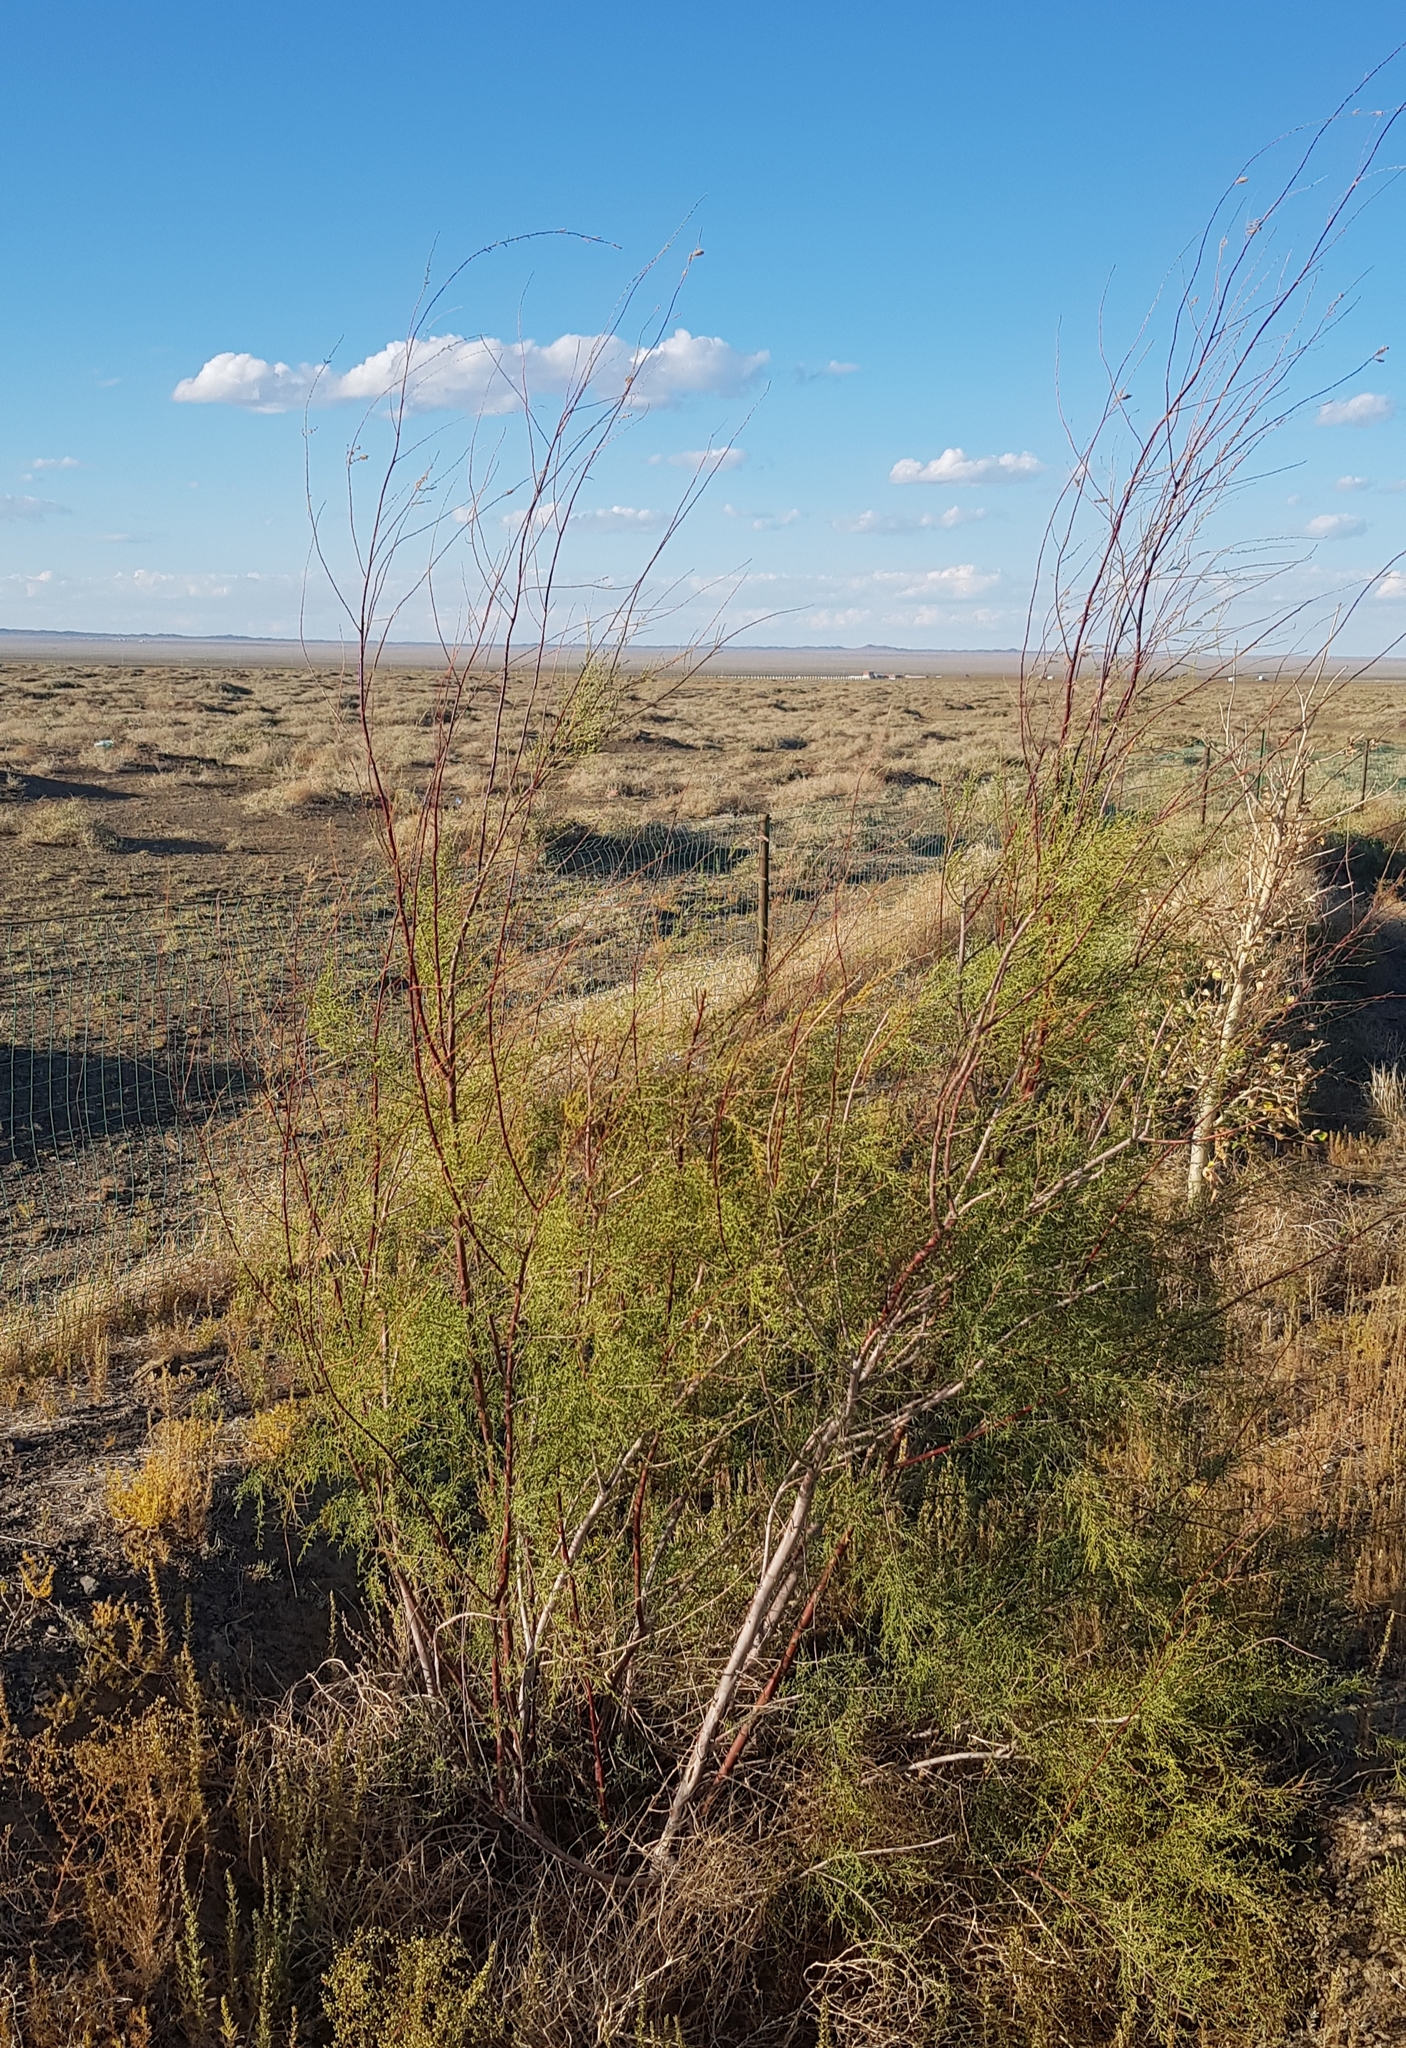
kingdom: Plantae
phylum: Tracheophyta
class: Magnoliopsida
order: Caryophyllales
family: Tamaricaceae
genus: Tamarix
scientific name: Tamarix gracilis
